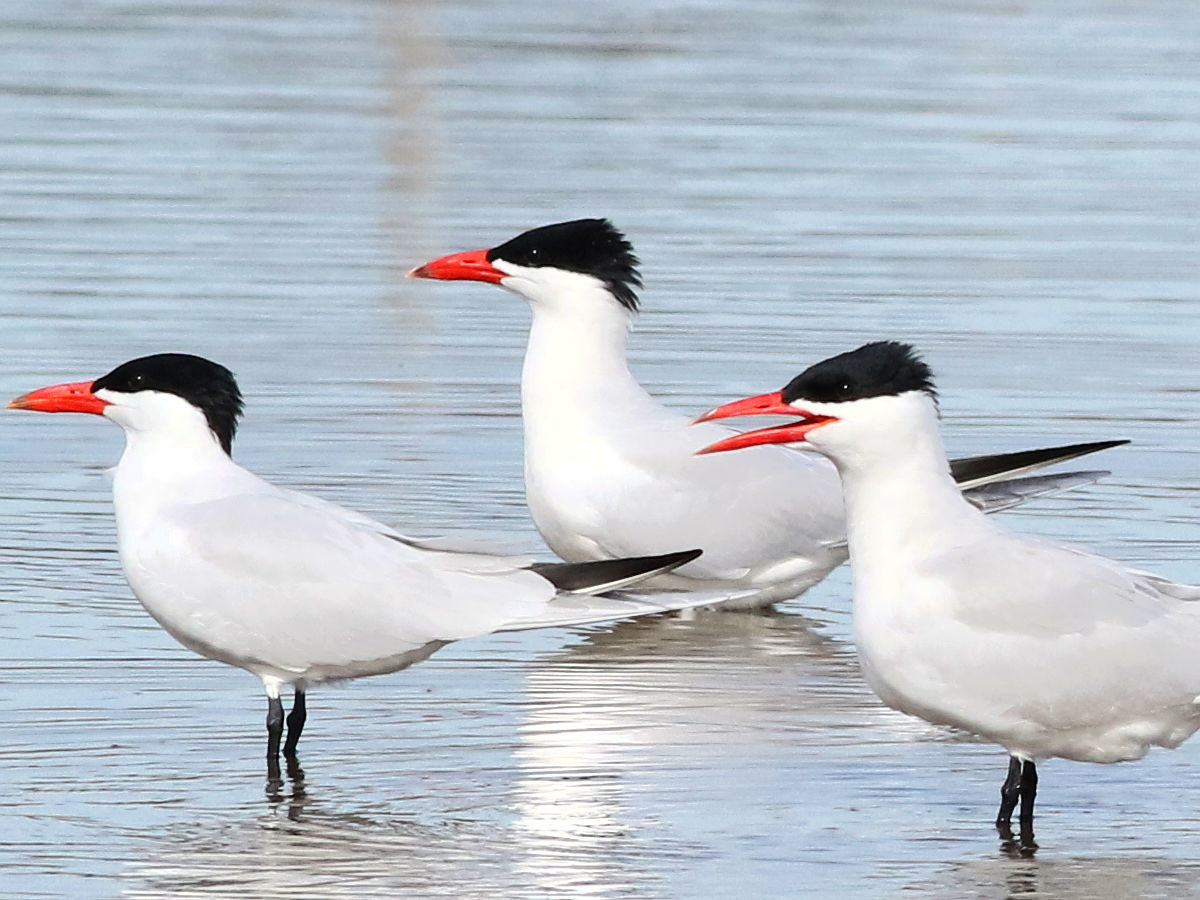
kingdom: Animalia
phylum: Chordata
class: Aves
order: Charadriiformes
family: Laridae
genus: Hydroprogne
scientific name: Hydroprogne caspia
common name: Caspian tern
